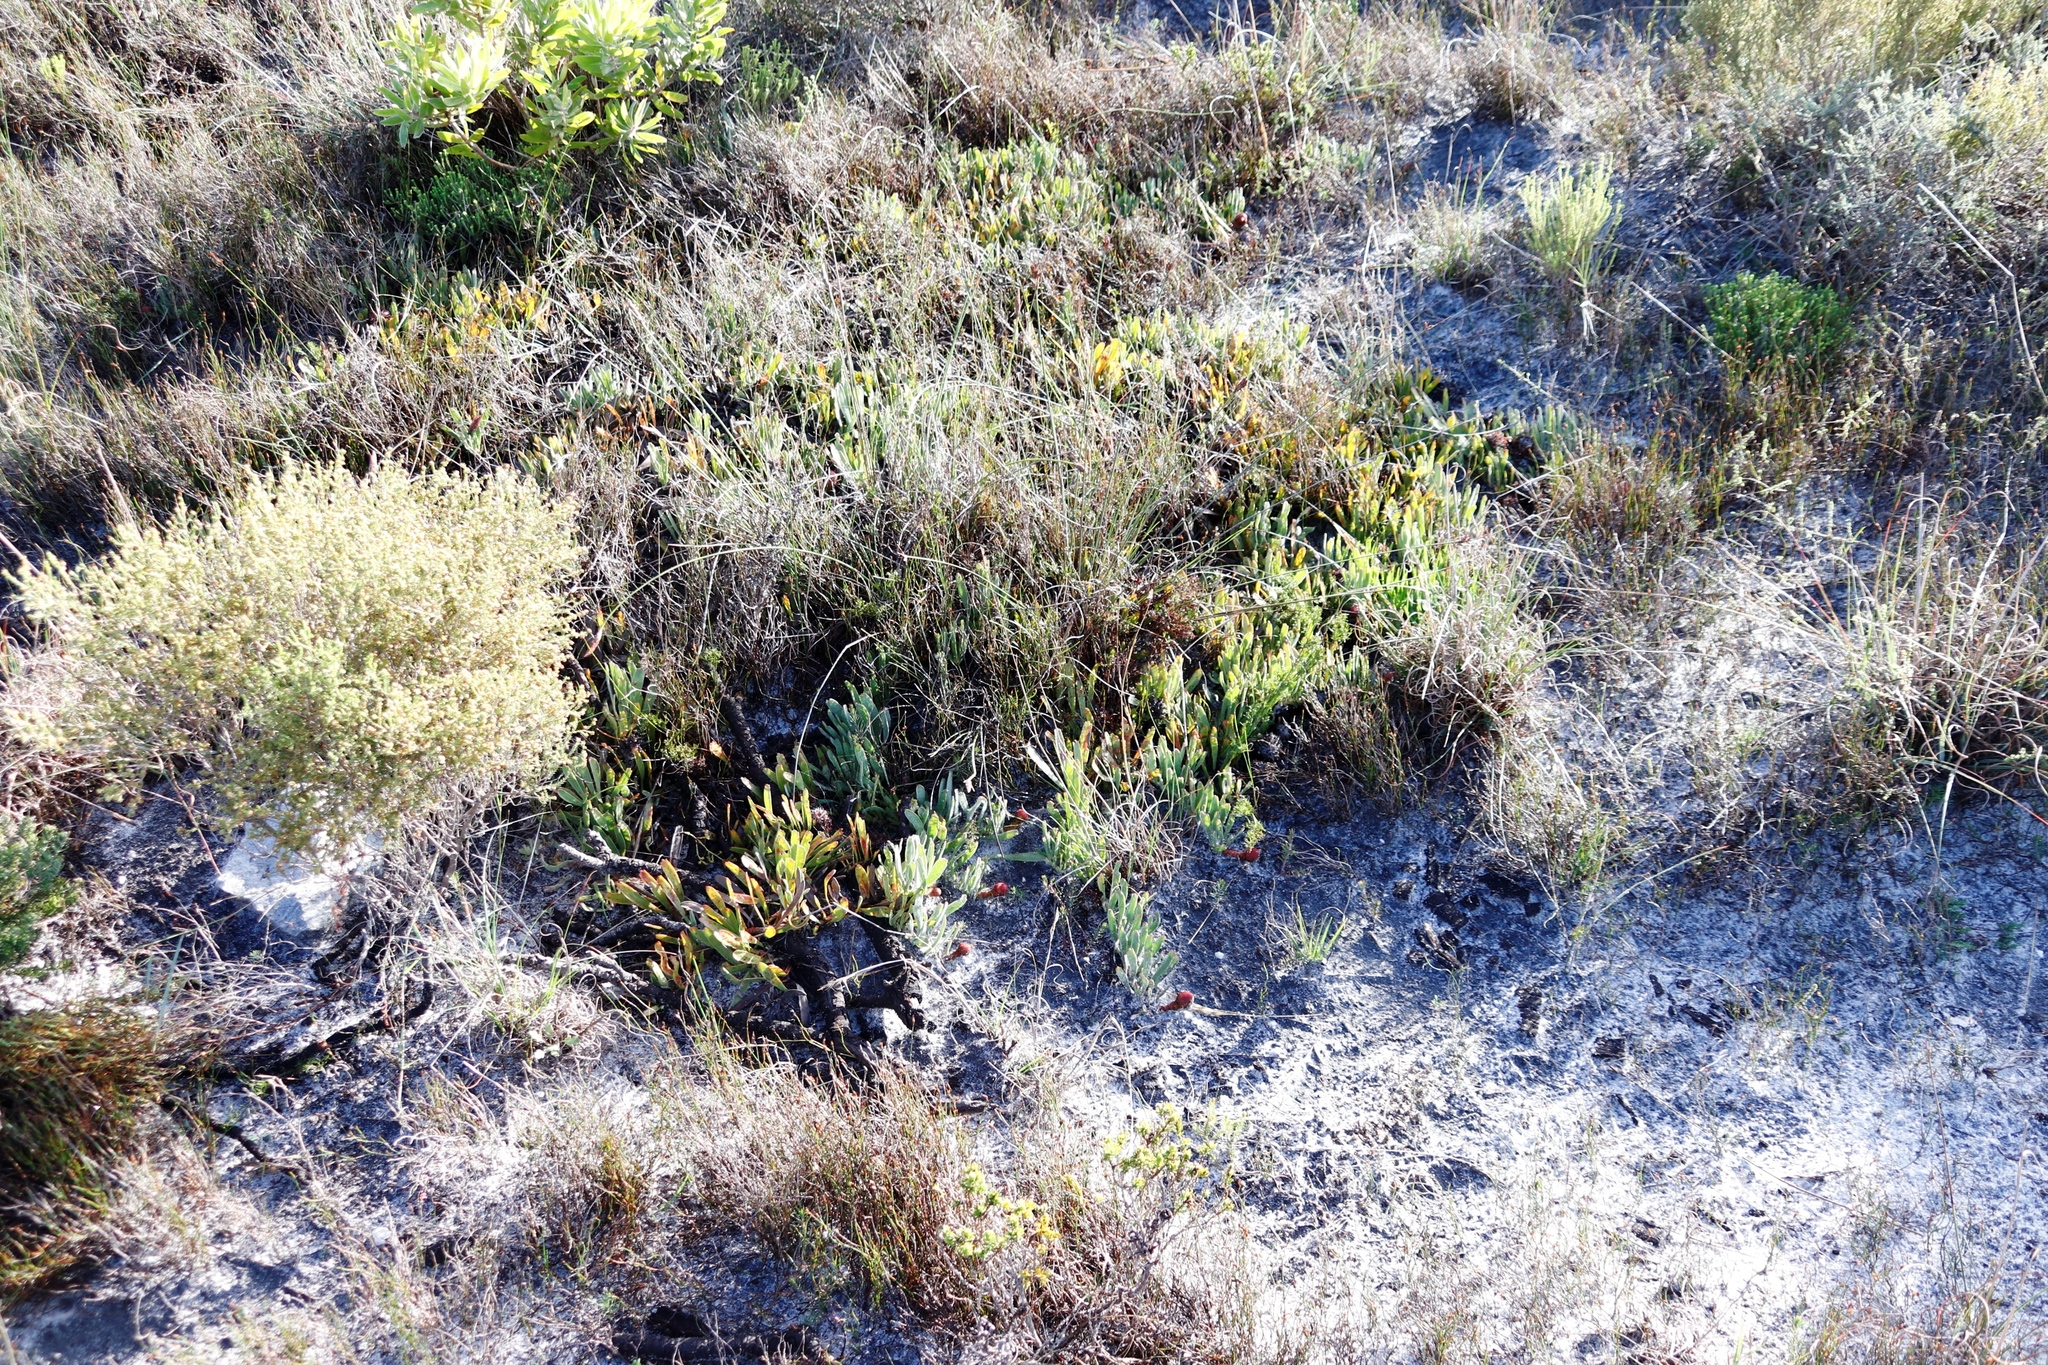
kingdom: Plantae
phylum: Tracheophyta
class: Magnoliopsida
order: Proteales
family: Proteaceae
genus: Leucospermum
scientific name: Leucospermum hypophyllocarpodendron
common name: Snakestem pincushion
